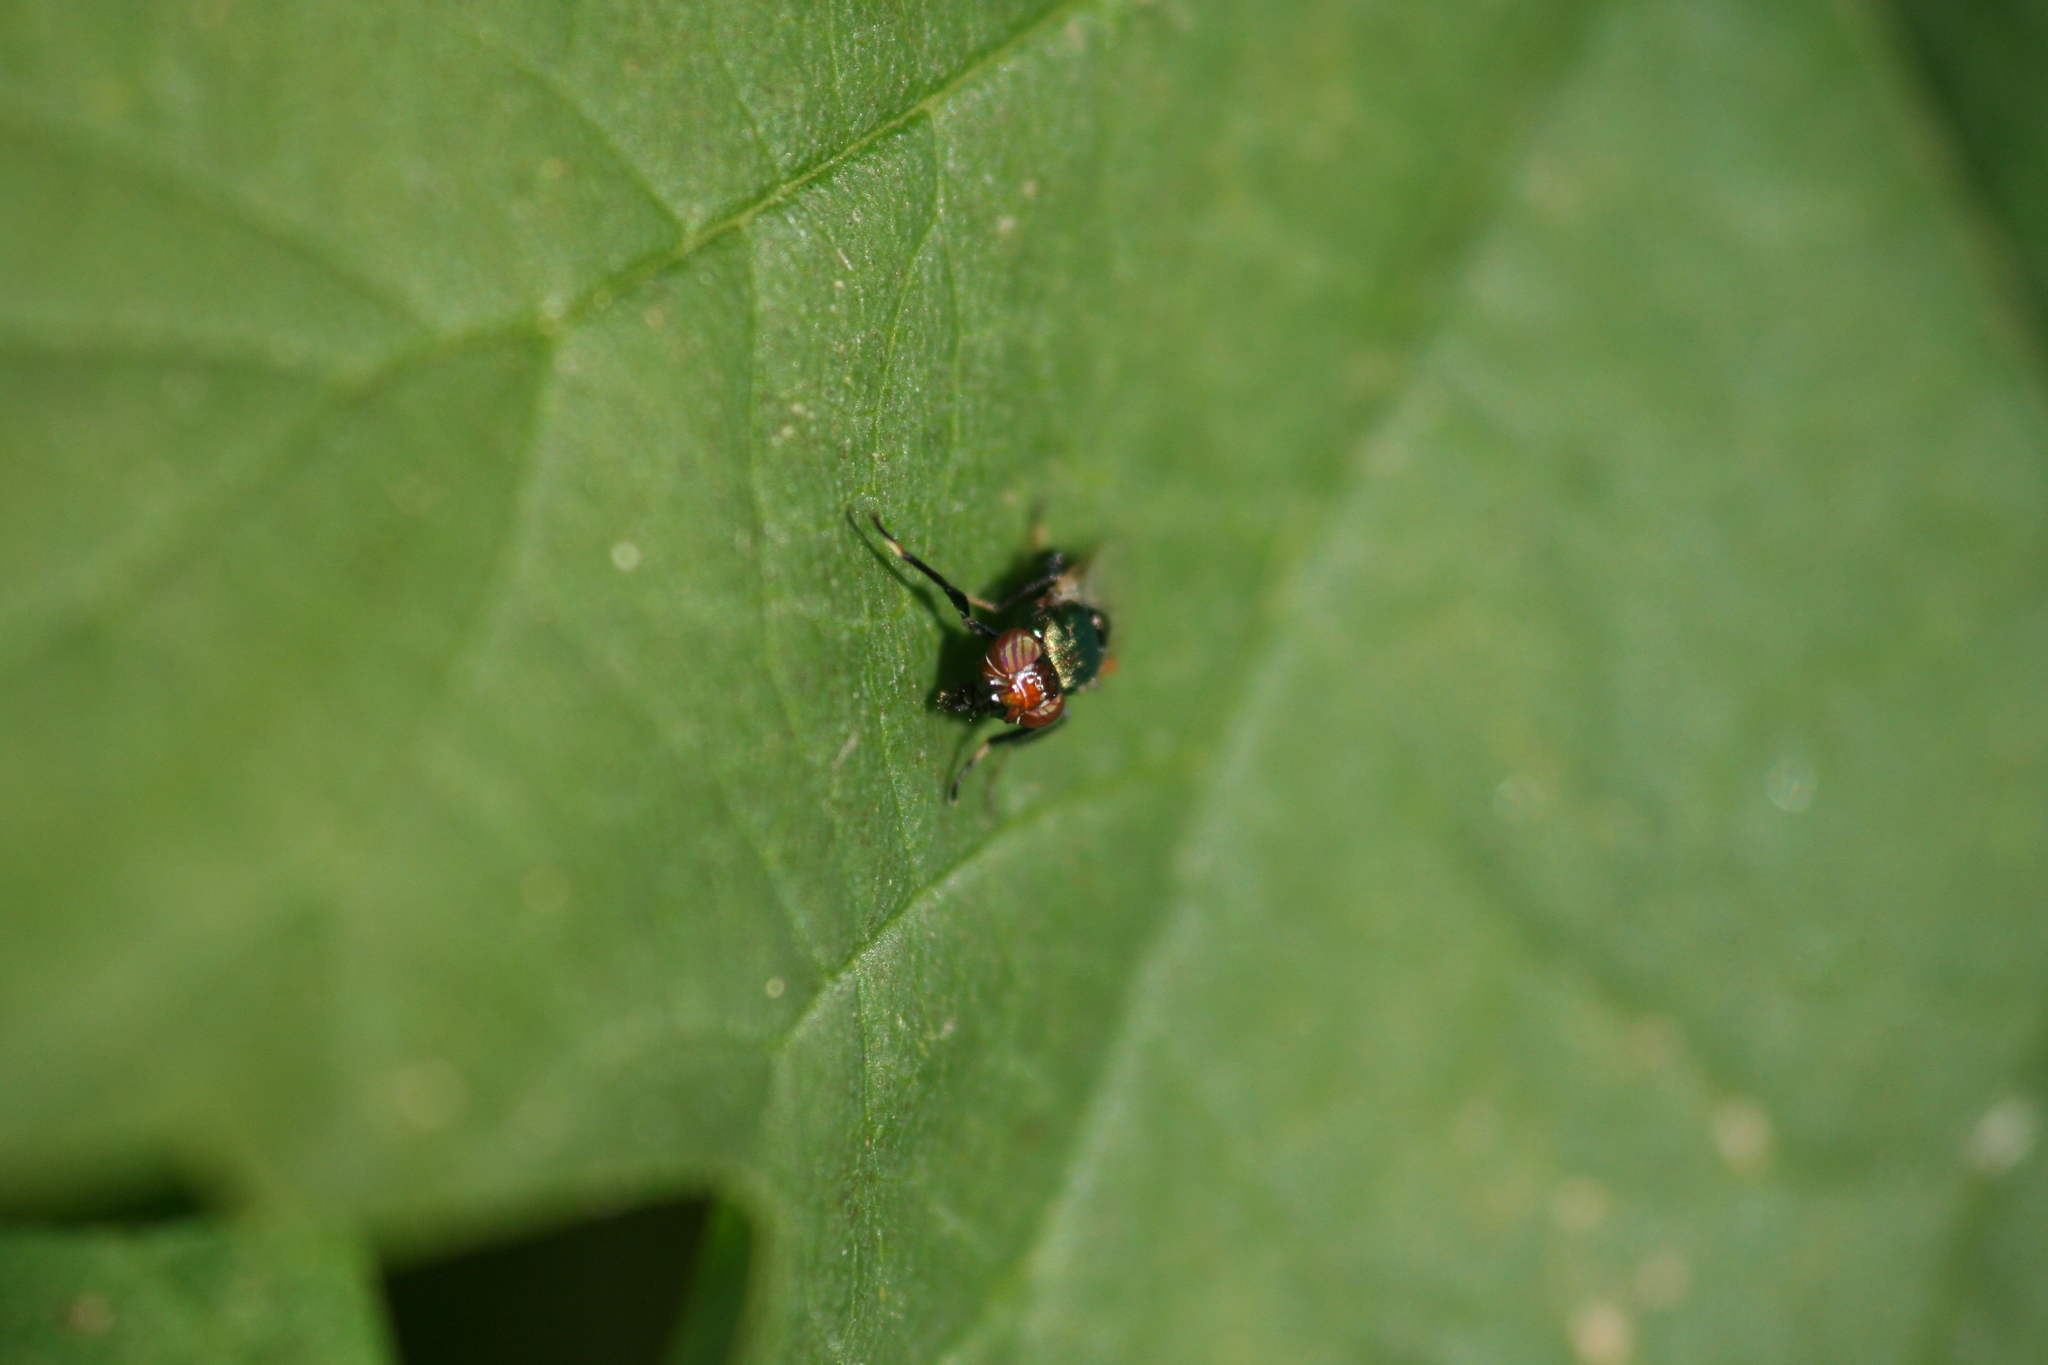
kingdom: Animalia
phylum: Arthropoda
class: Insecta
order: Diptera
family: Ulidiidae
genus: Physiphora
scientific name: Physiphora alceae
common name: Picture-winged fly
